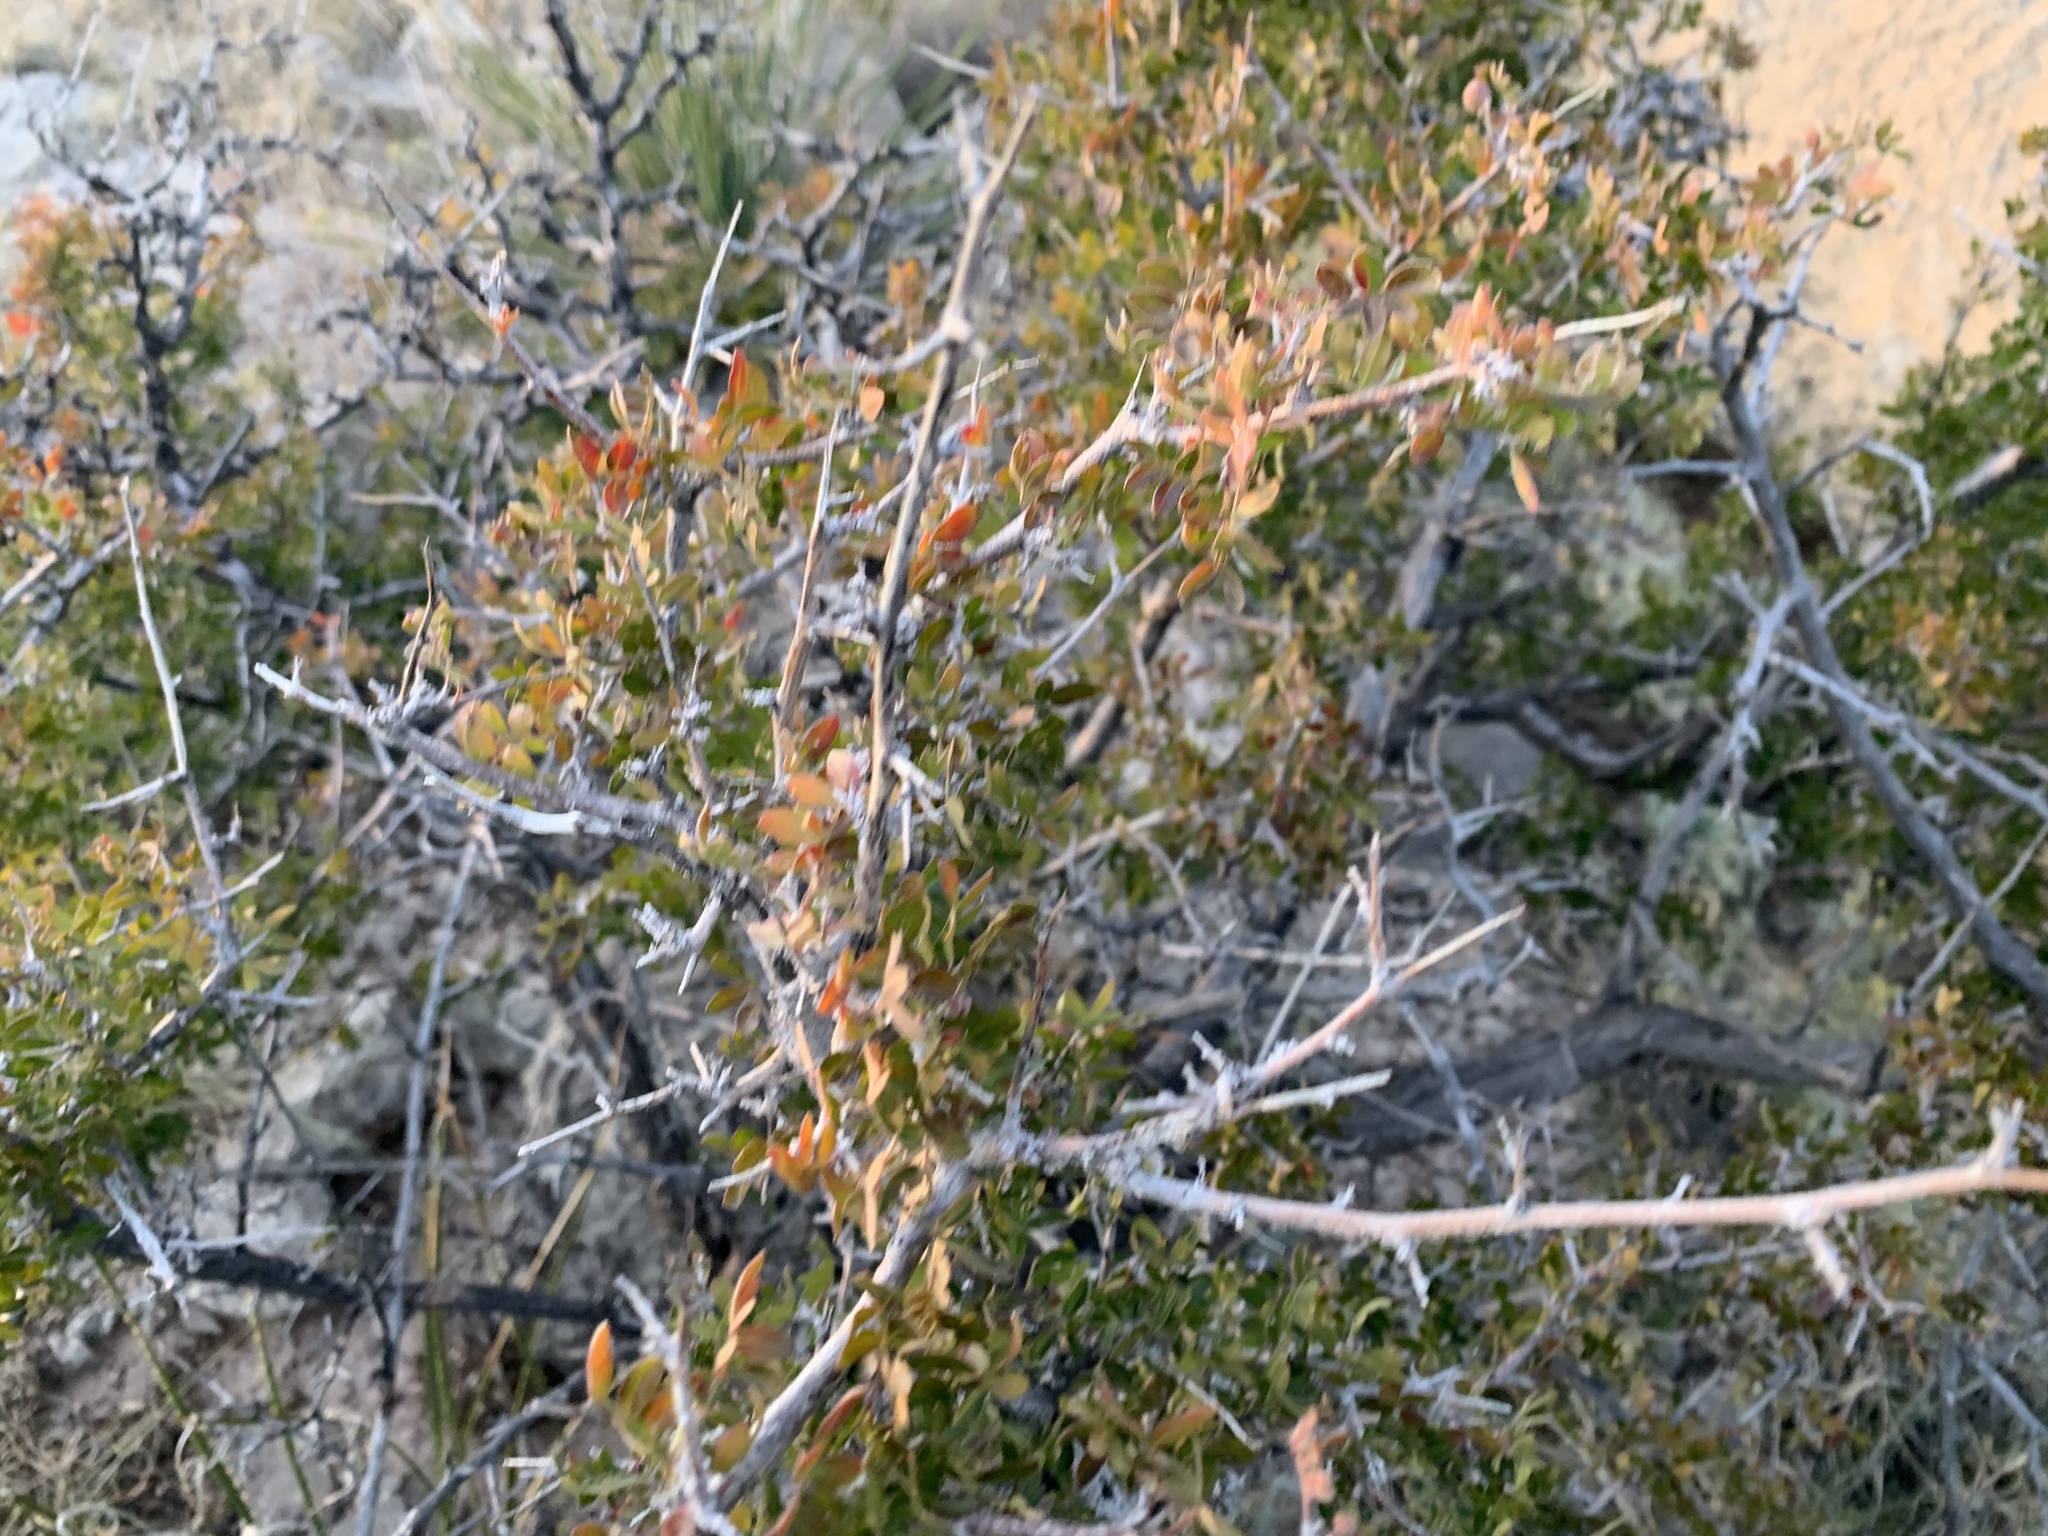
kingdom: Plantae
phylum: Tracheophyta
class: Magnoliopsida
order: Sapindales
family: Anacardiaceae
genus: Rhus
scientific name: Rhus microphylla
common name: Desert sumac
